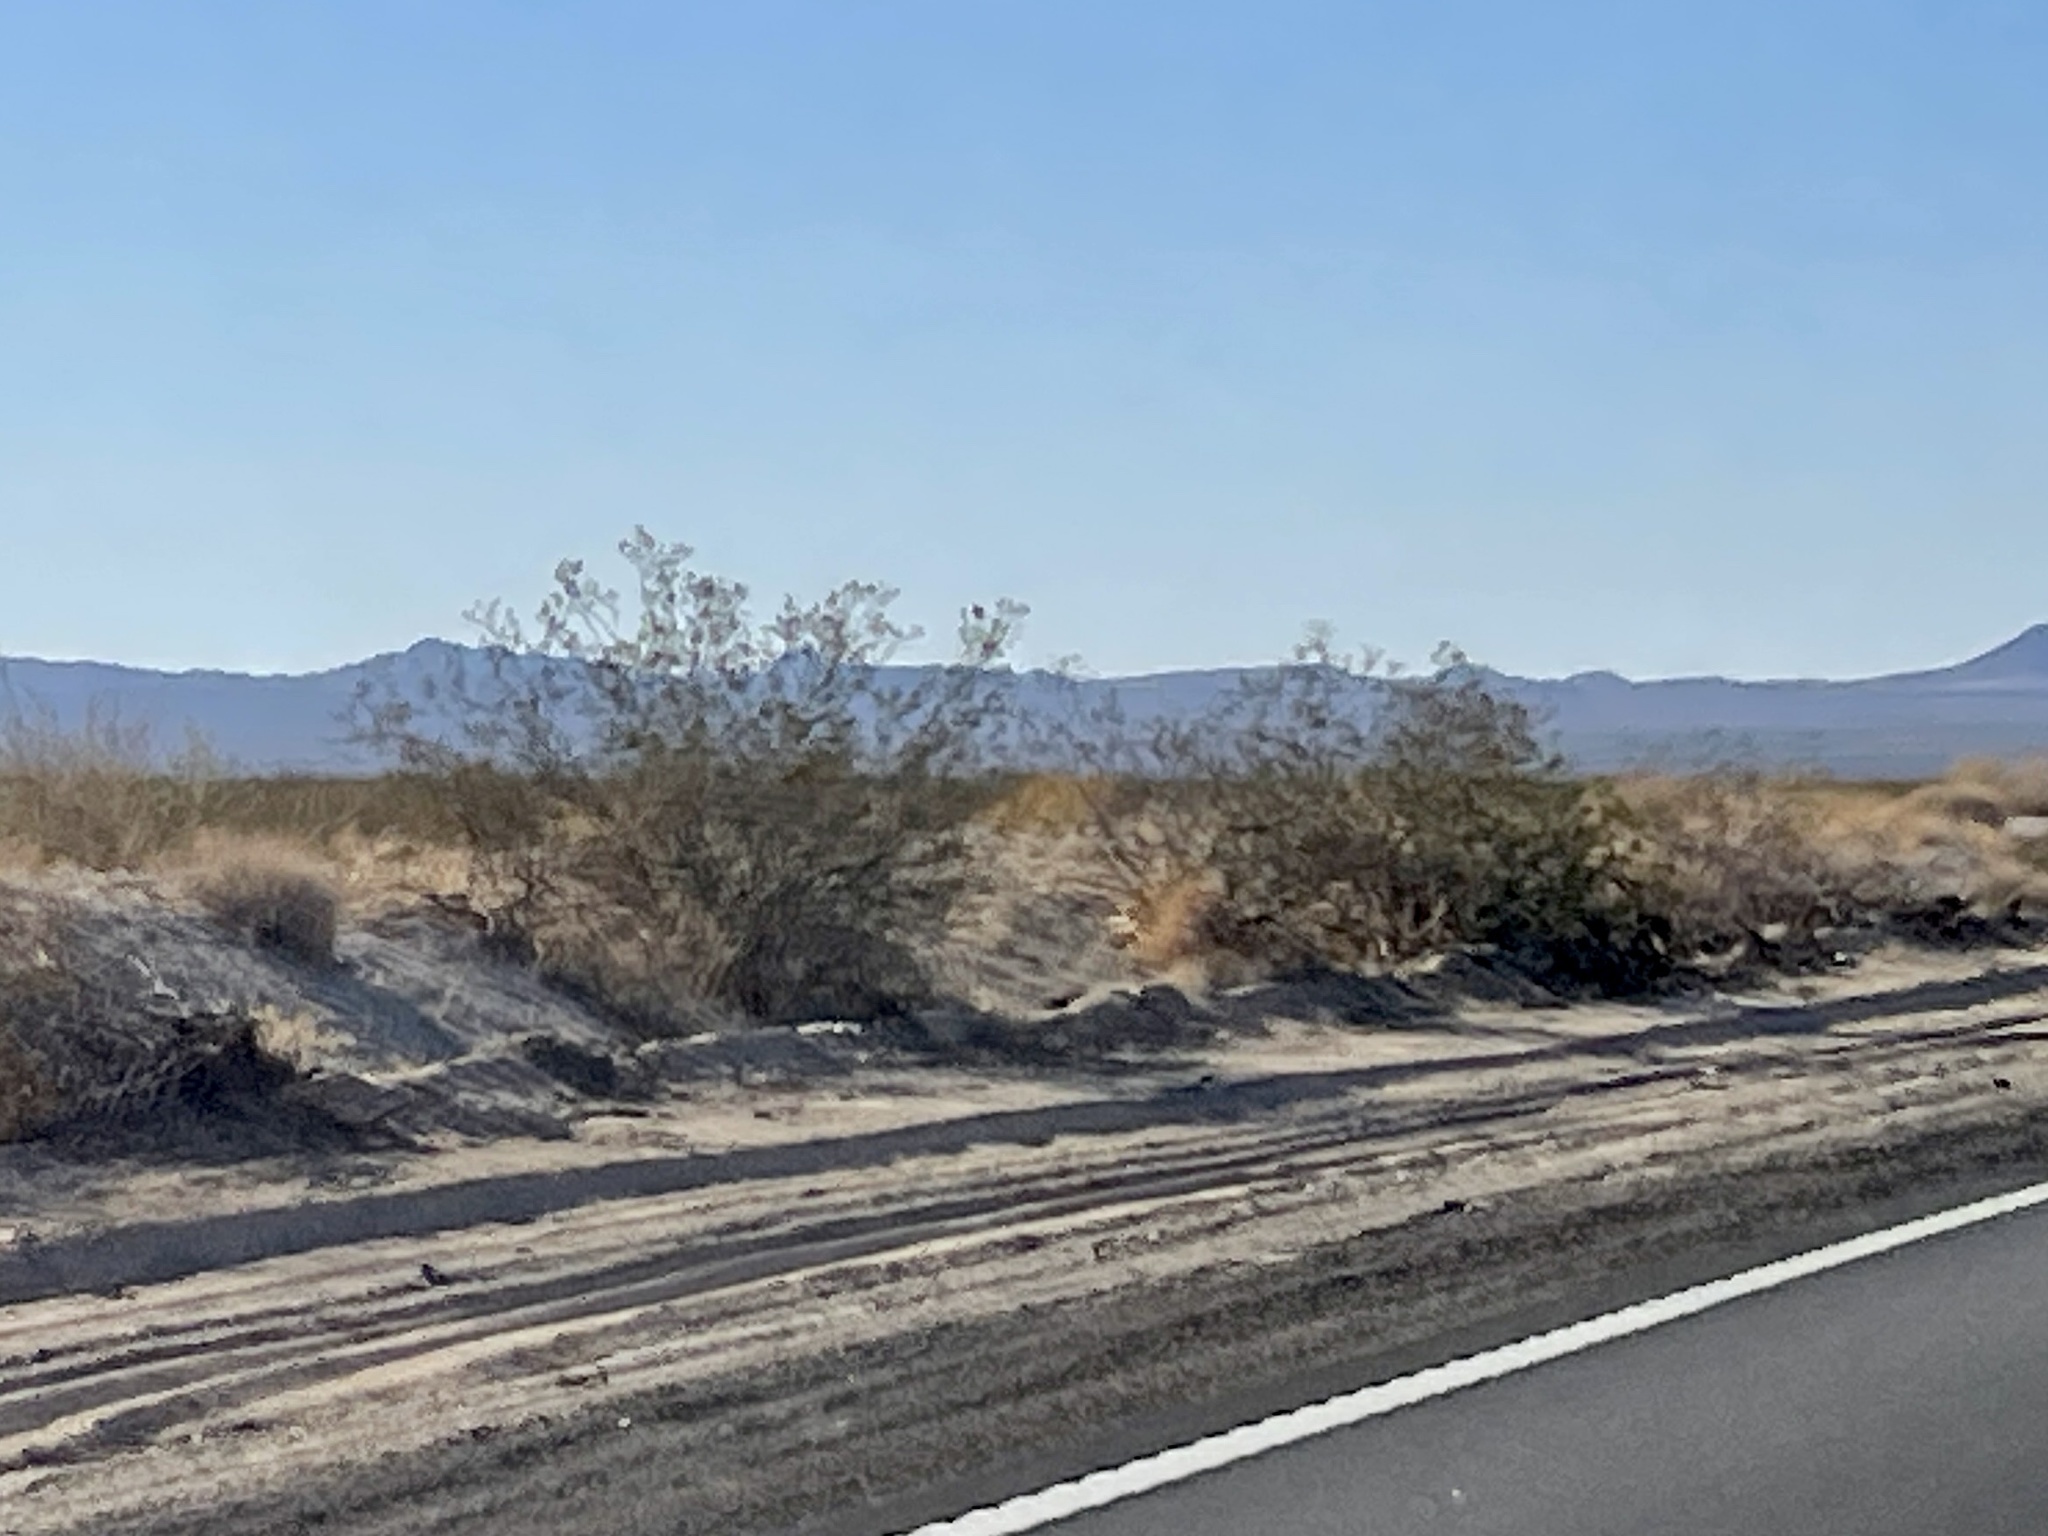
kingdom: Plantae
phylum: Tracheophyta
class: Magnoliopsida
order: Zygophyllales
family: Zygophyllaceae
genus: Larrea
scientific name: Larrea tridentata
